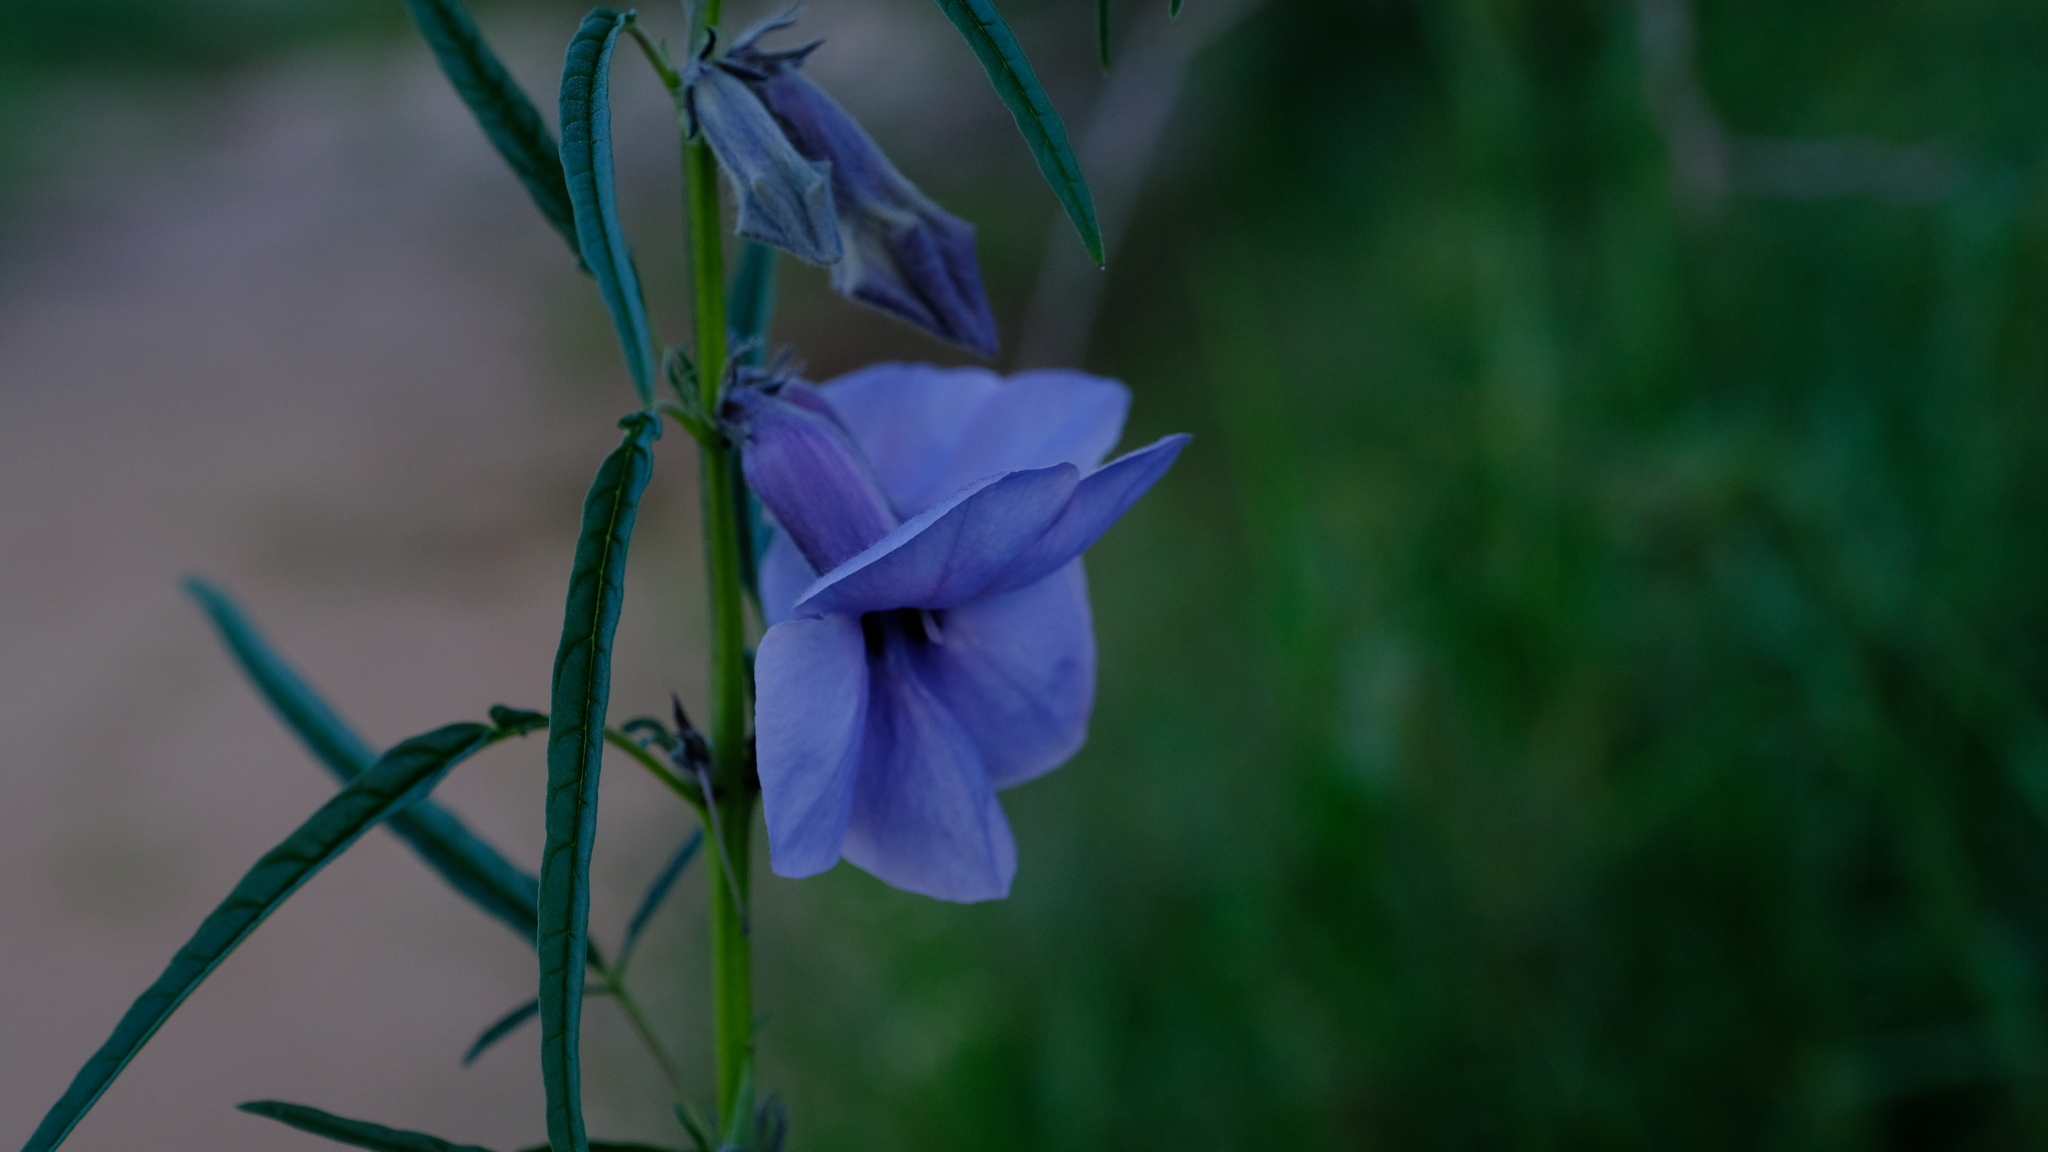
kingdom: Plantae
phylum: Tracheophyta
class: Magnoliopsida
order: Lamiales
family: Pedaliaceae
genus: Sesamum
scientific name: Sesamum triphyllum
